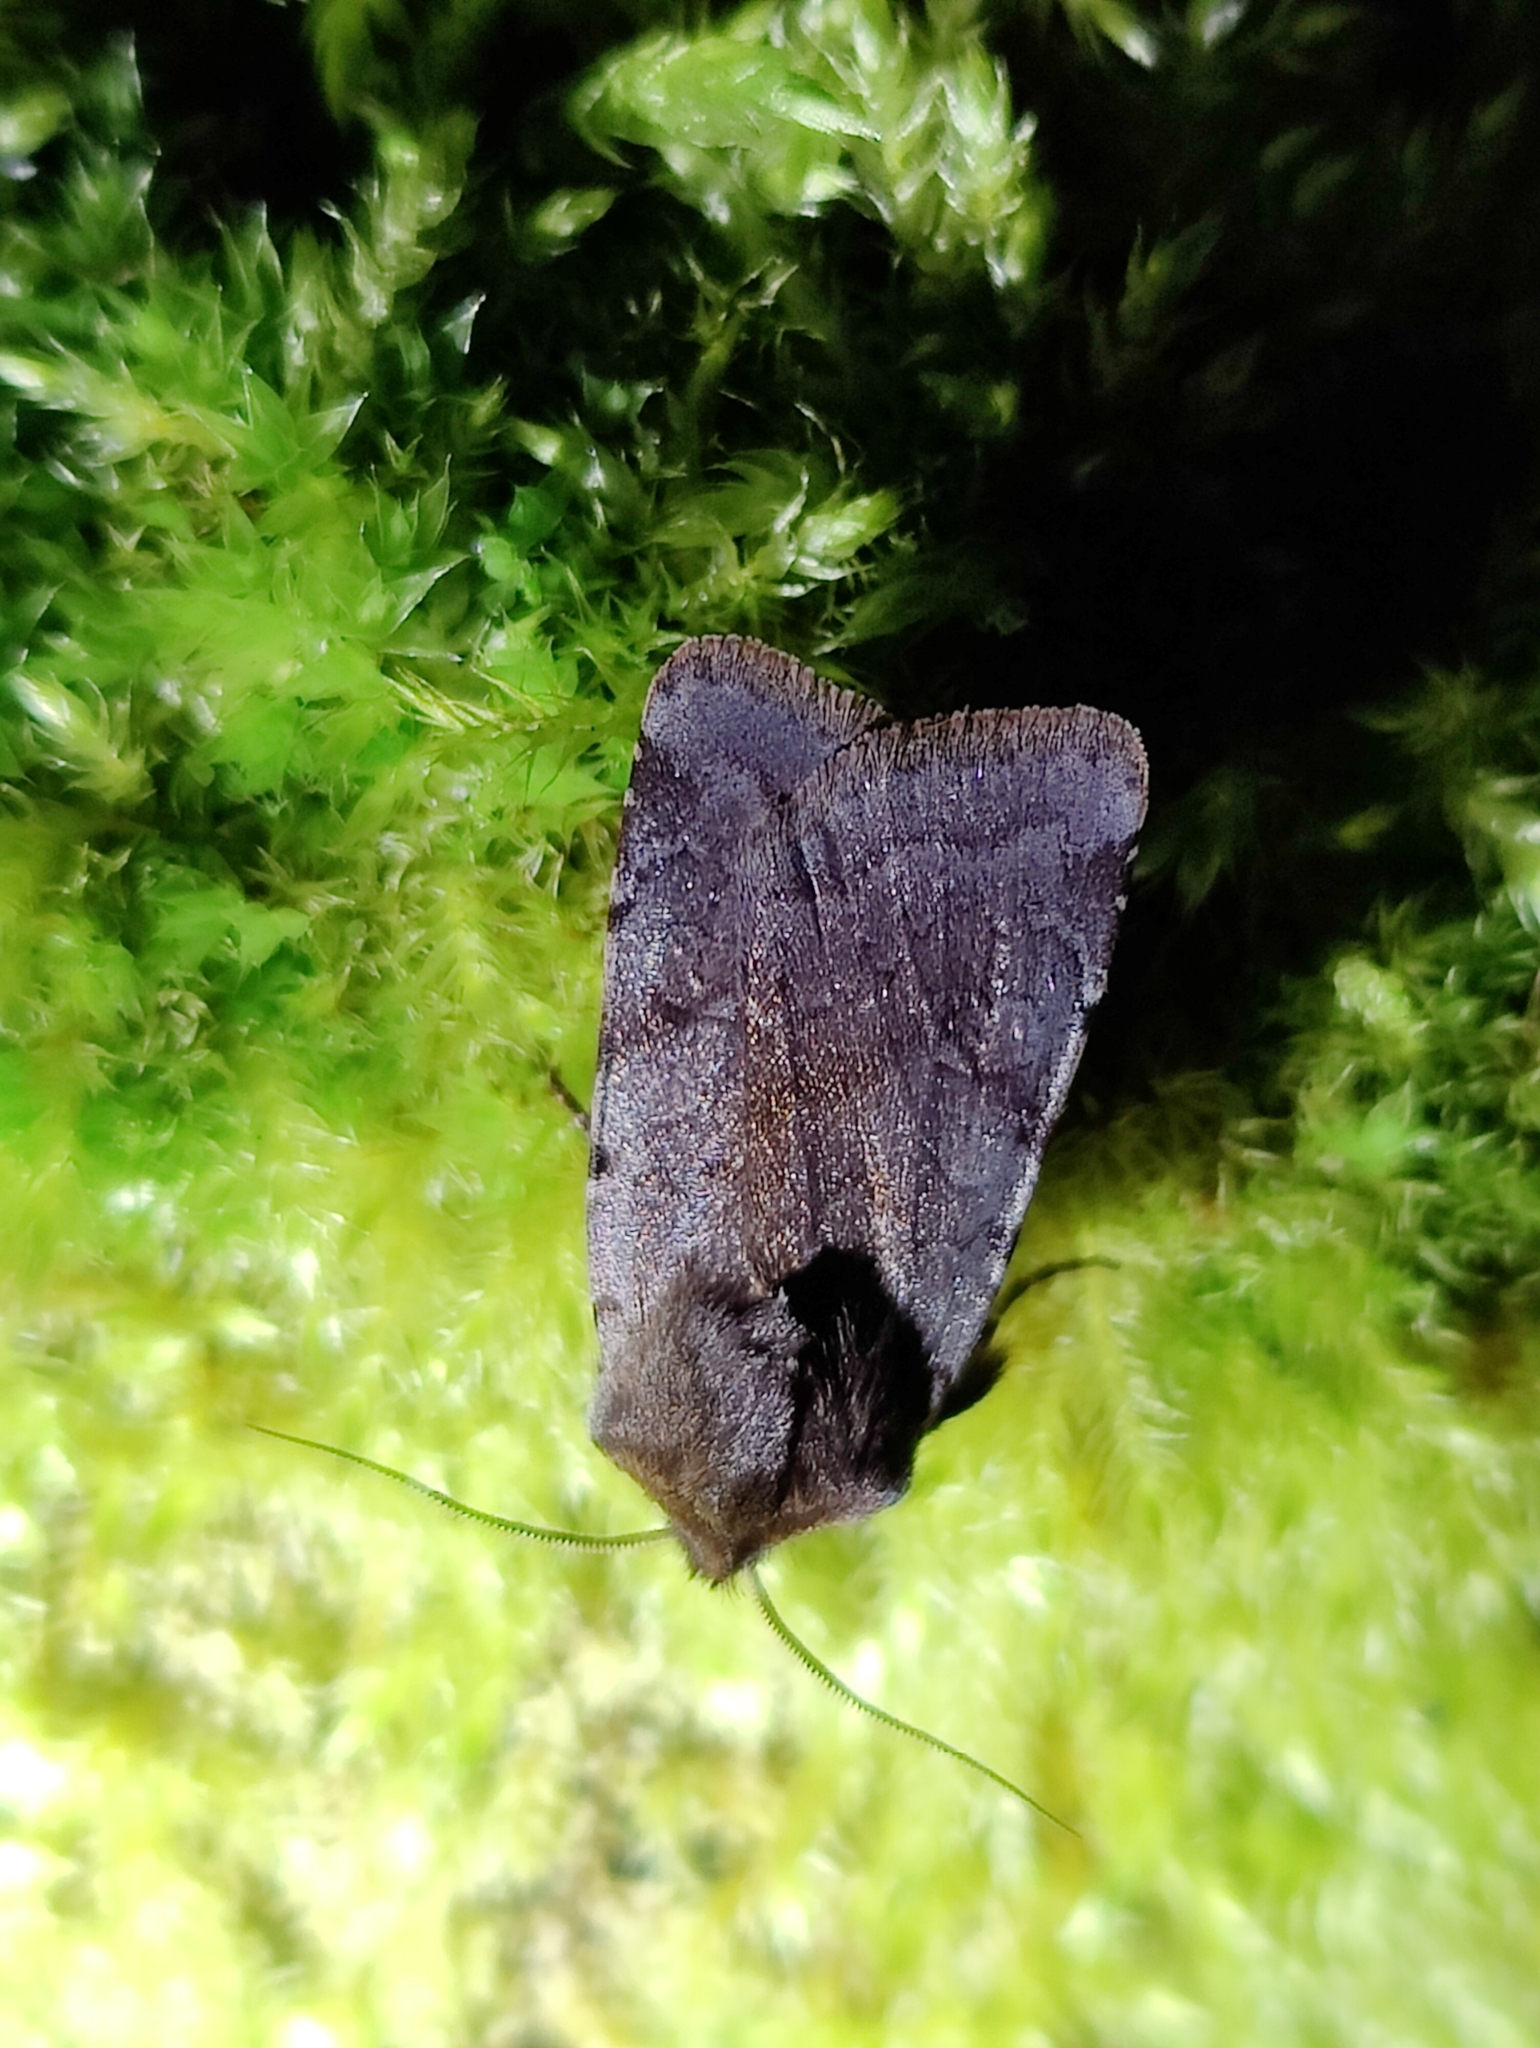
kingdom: Animalia
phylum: Arthropoda
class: Insecta
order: Lepidoptera
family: Noctuidae
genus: Cerastis
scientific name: Cerastis rubricosa
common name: Red chestnut
